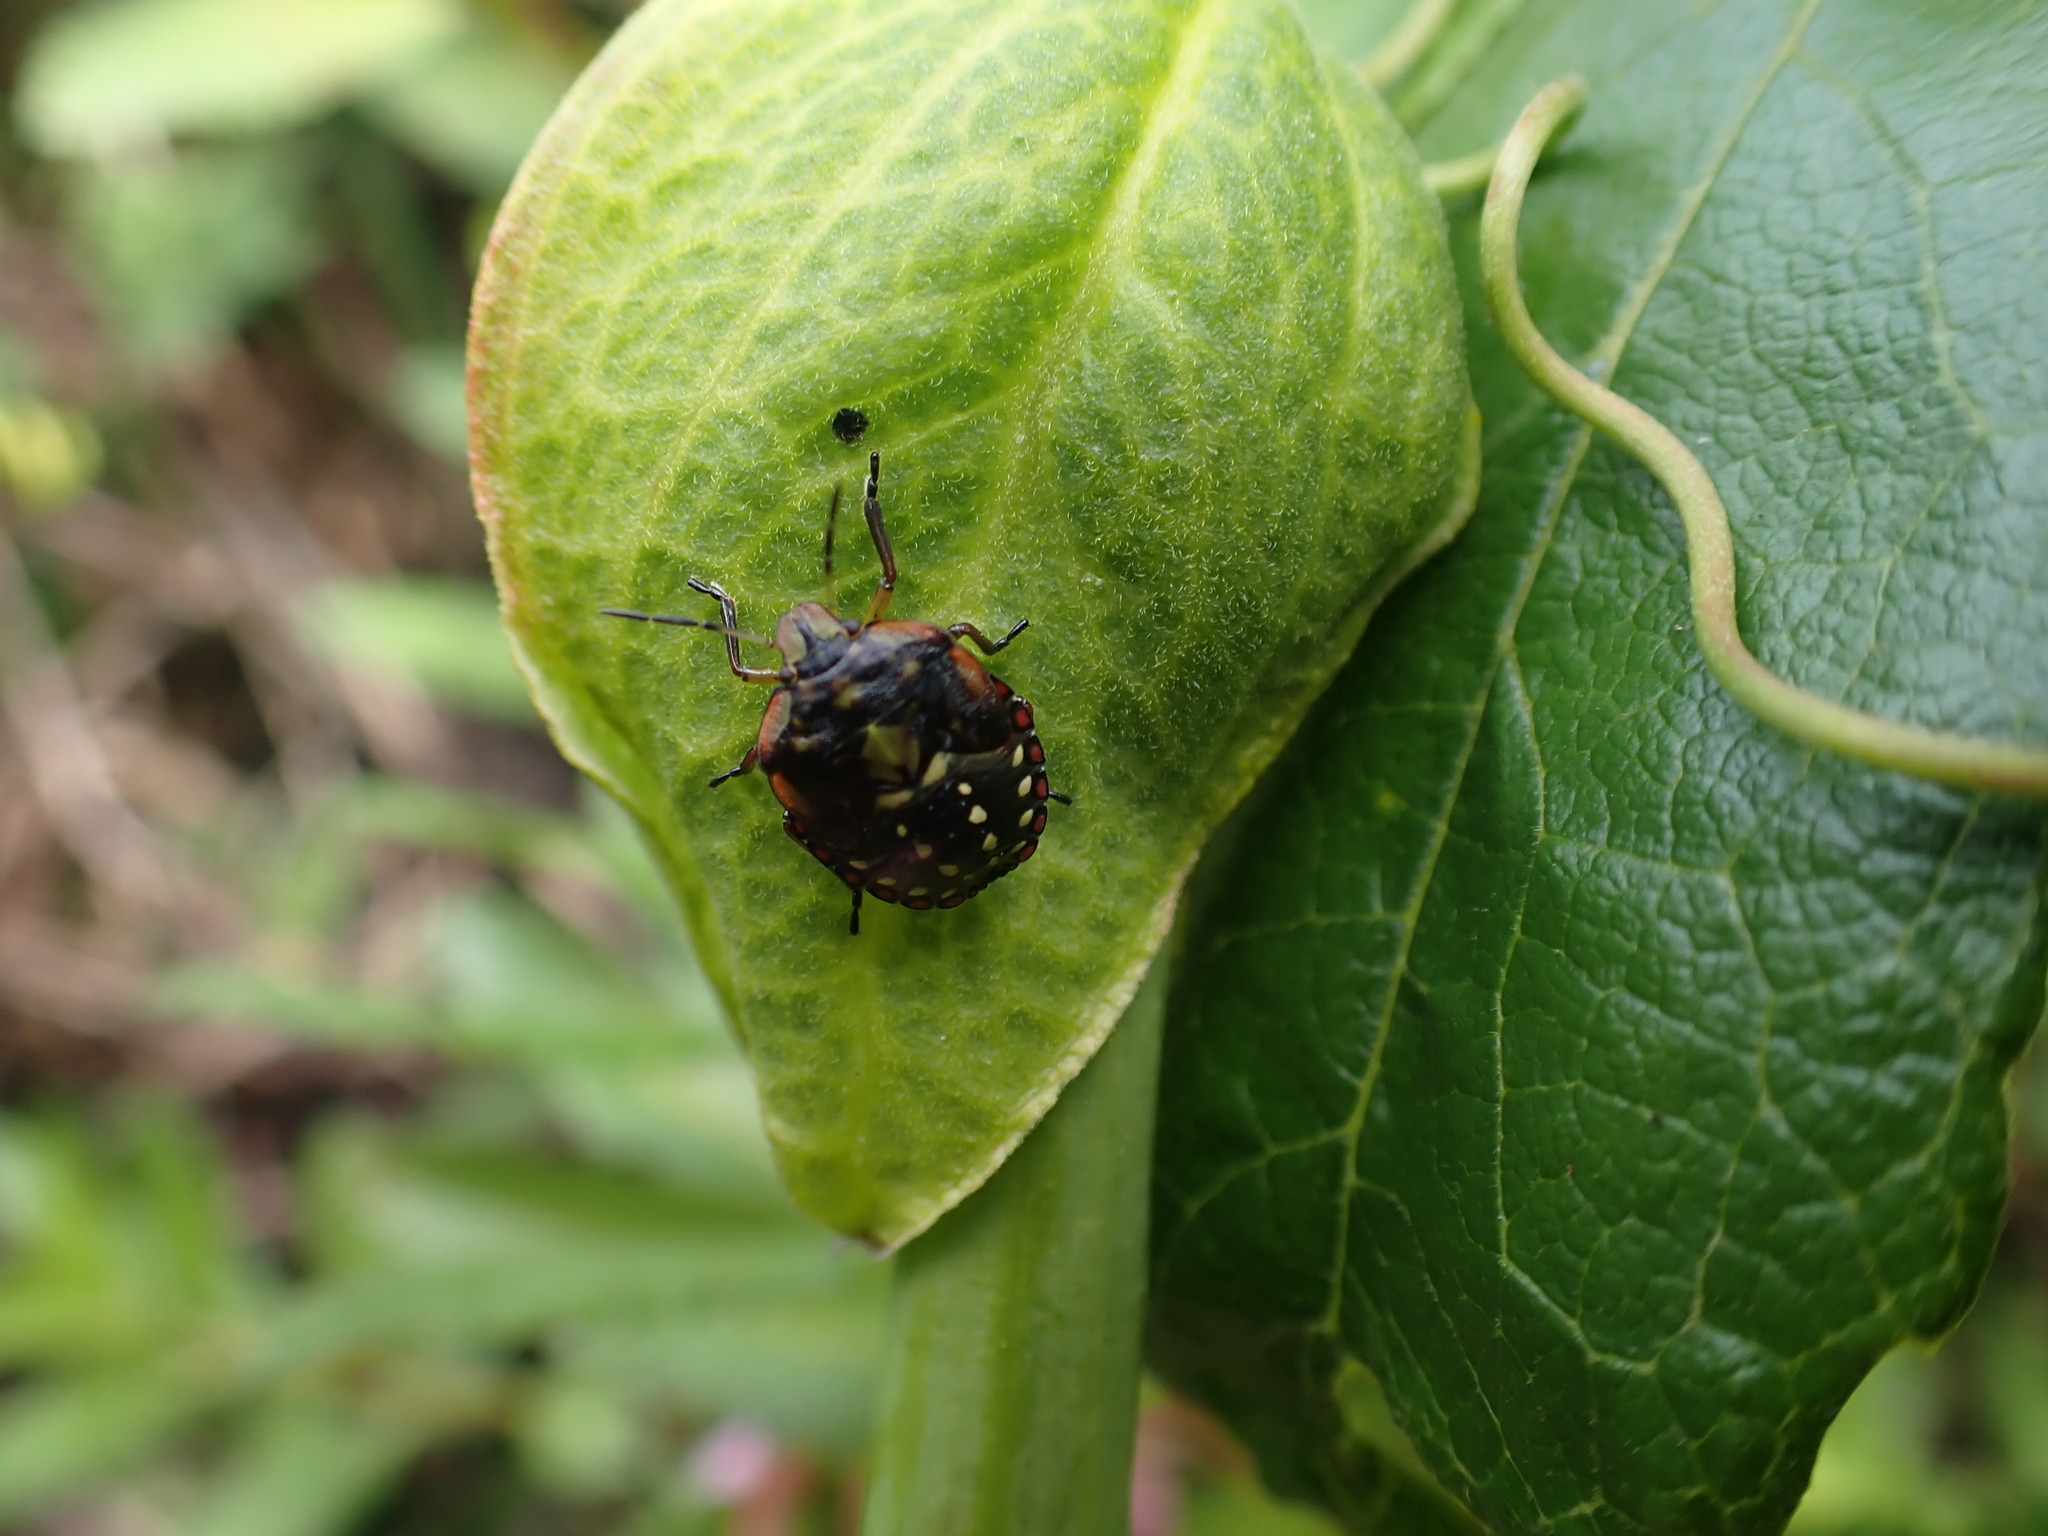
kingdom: Animalia
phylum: Arthropoda
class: Insecta
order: Hemiptera
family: Pentatomidae
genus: Nezara
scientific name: Nezara viridula
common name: Southern green stink bug
